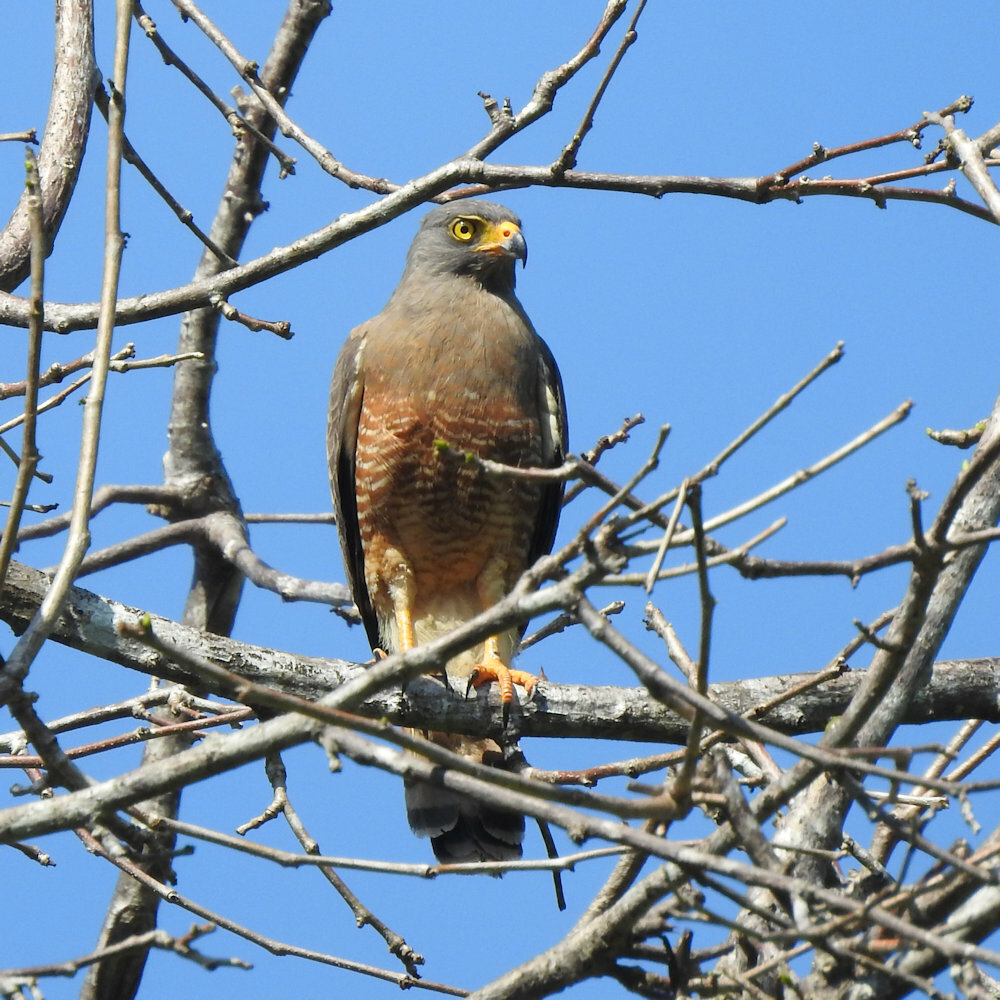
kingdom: Animalia
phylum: Chordata
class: Aves
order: Accipitriformes
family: Accipitridae
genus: Rupornis
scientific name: Rupornis magnirostris
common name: Roadside hawk
